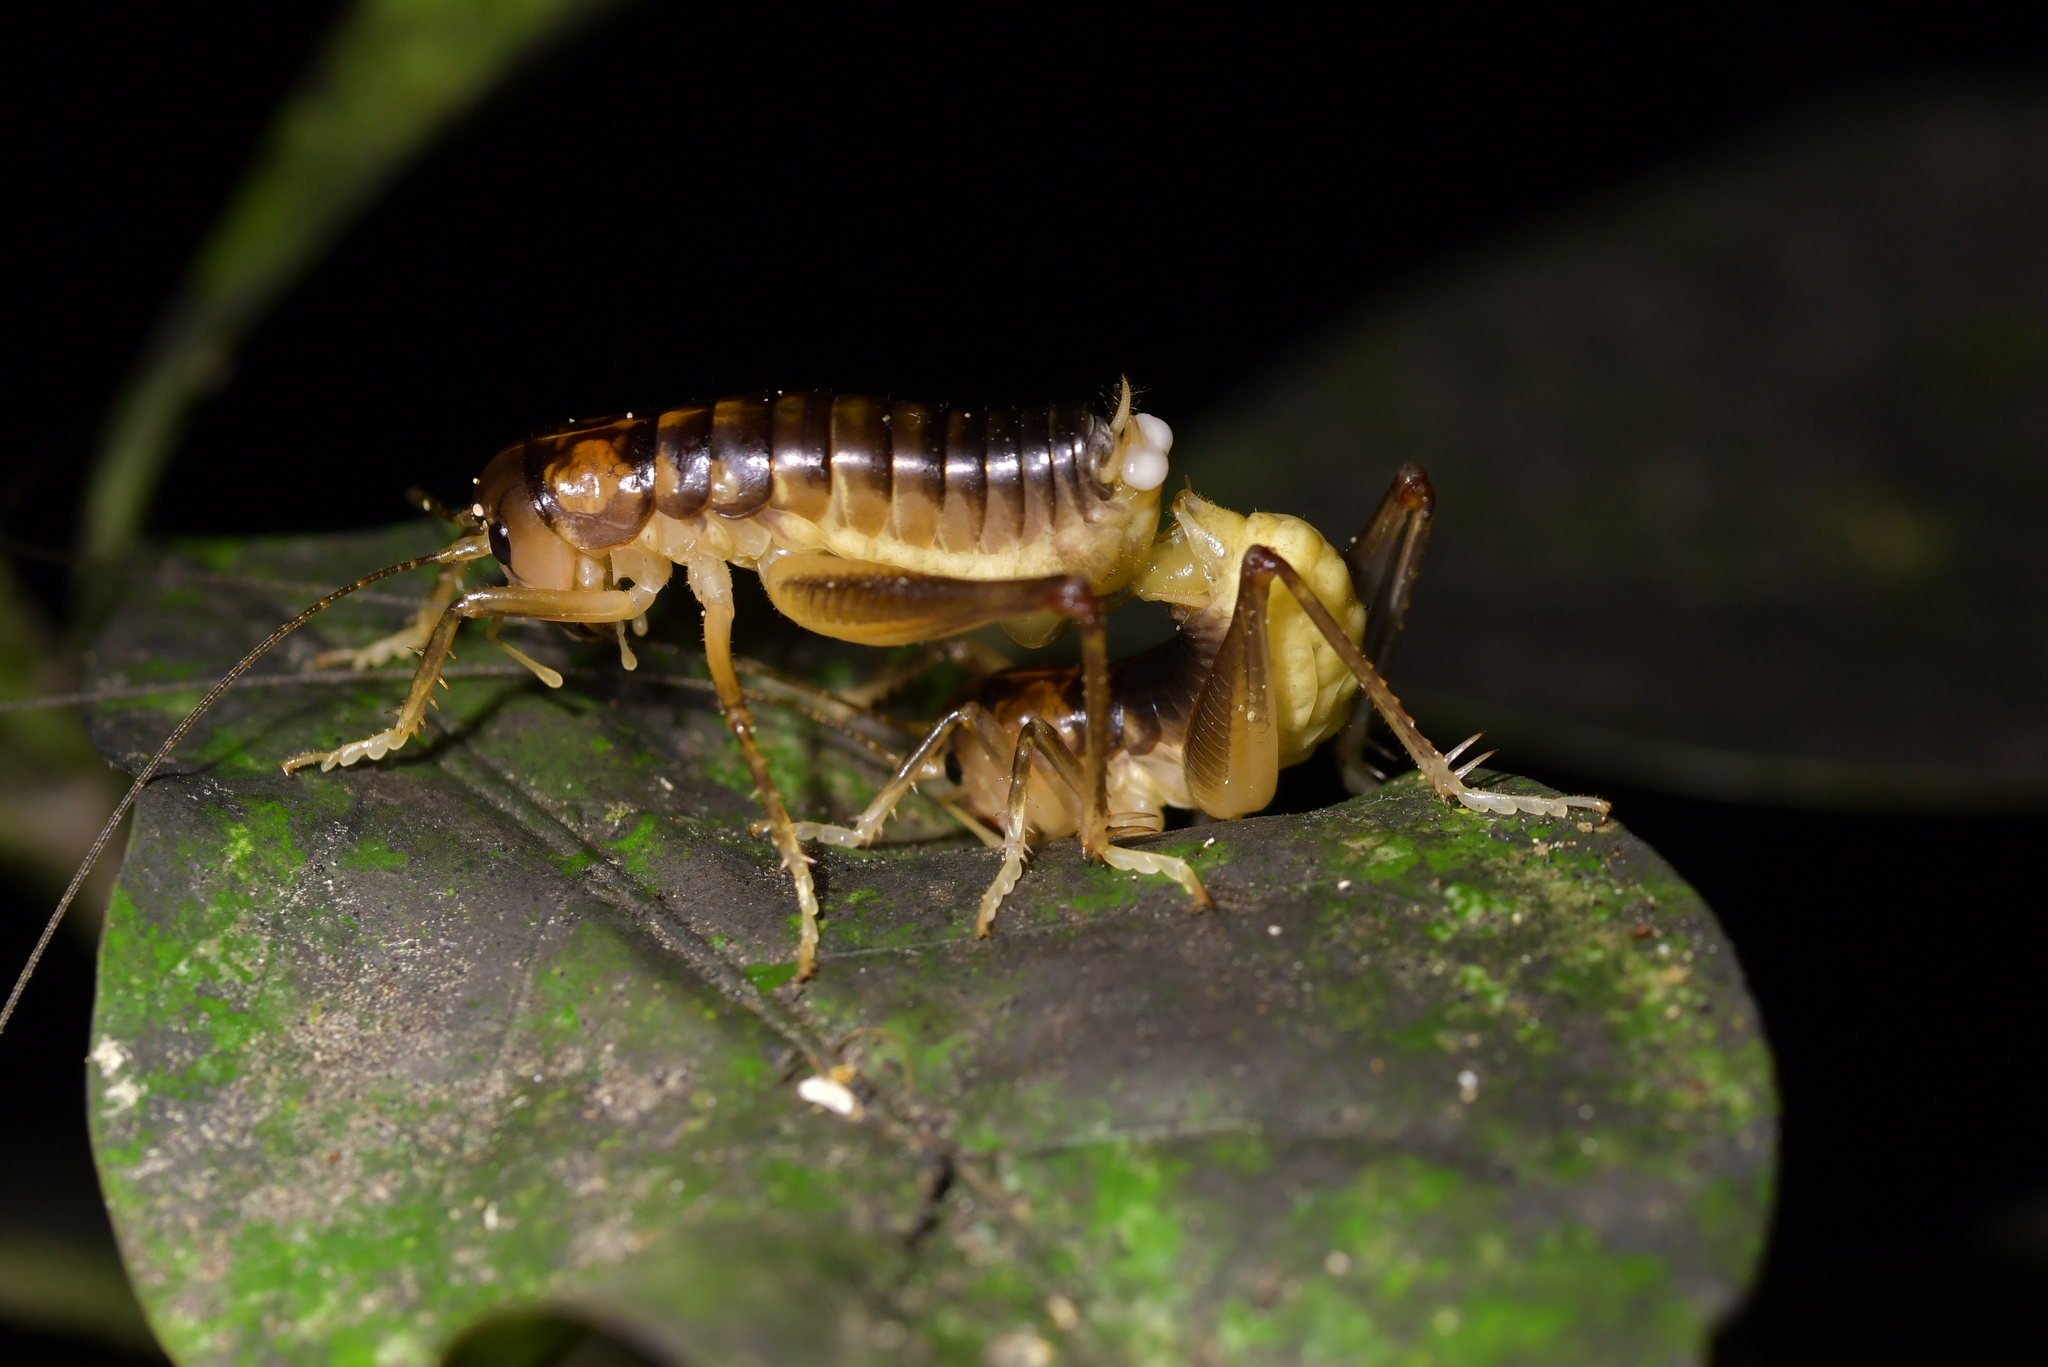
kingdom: Animalia
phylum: Arthropoda
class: Insecta
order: Orthoptera
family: Anostostomatidae
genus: Hemiandrus
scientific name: Hemiandrus pallitarsis
